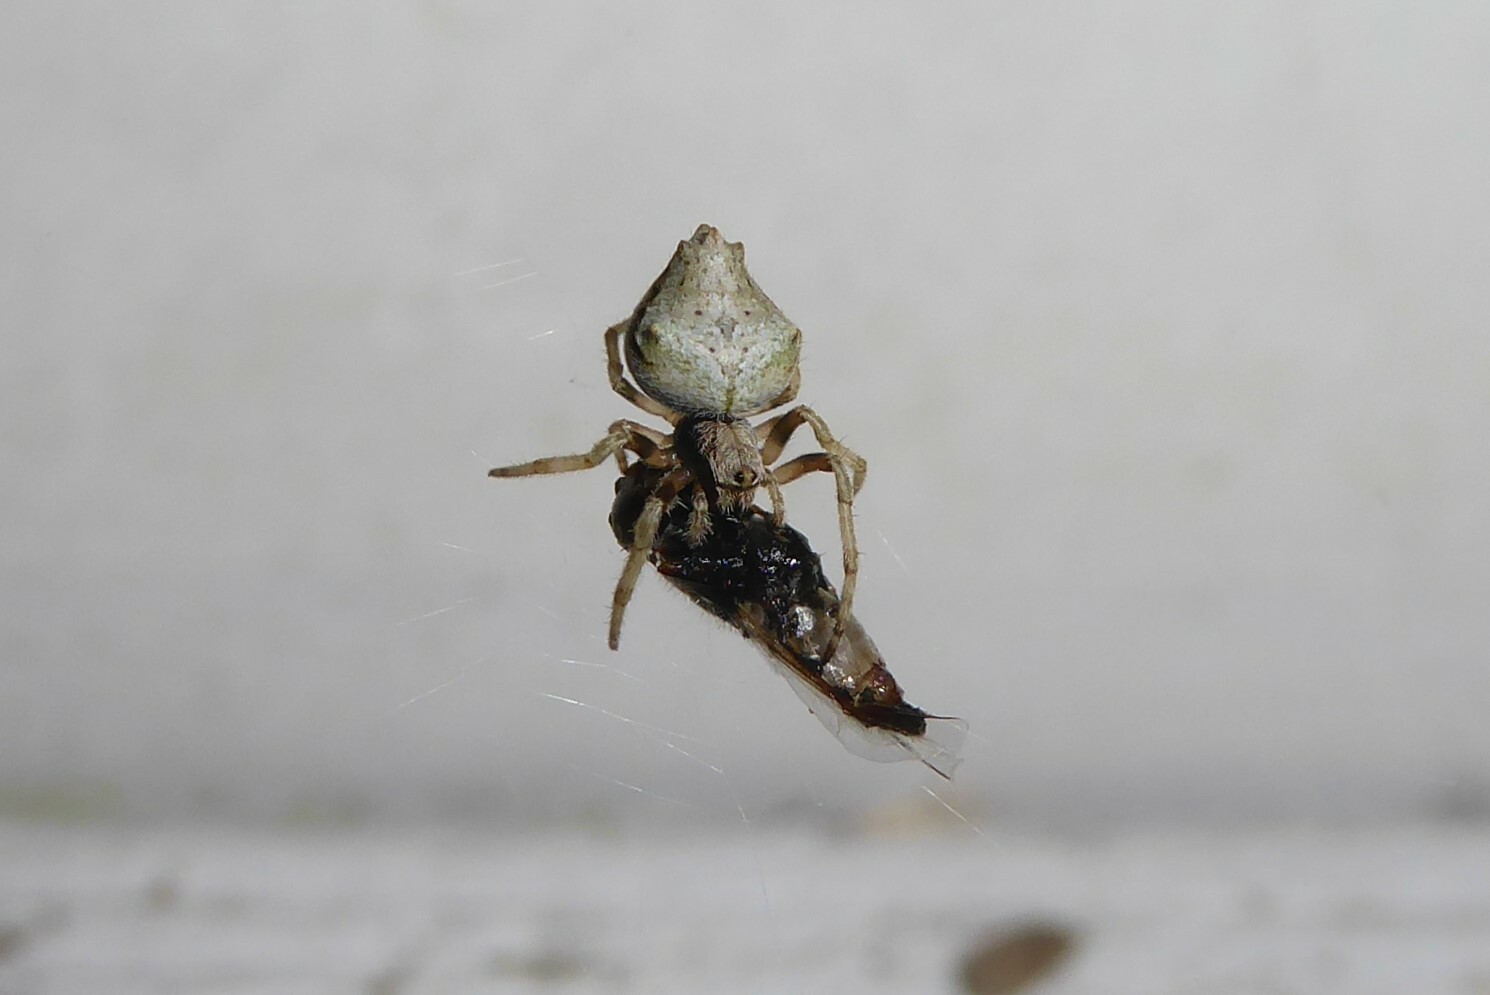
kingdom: Animalia
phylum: Arthropoda
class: Arachnida
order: Araneae
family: Araneidae
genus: Eriophora
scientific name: Eriophora pustulosa
